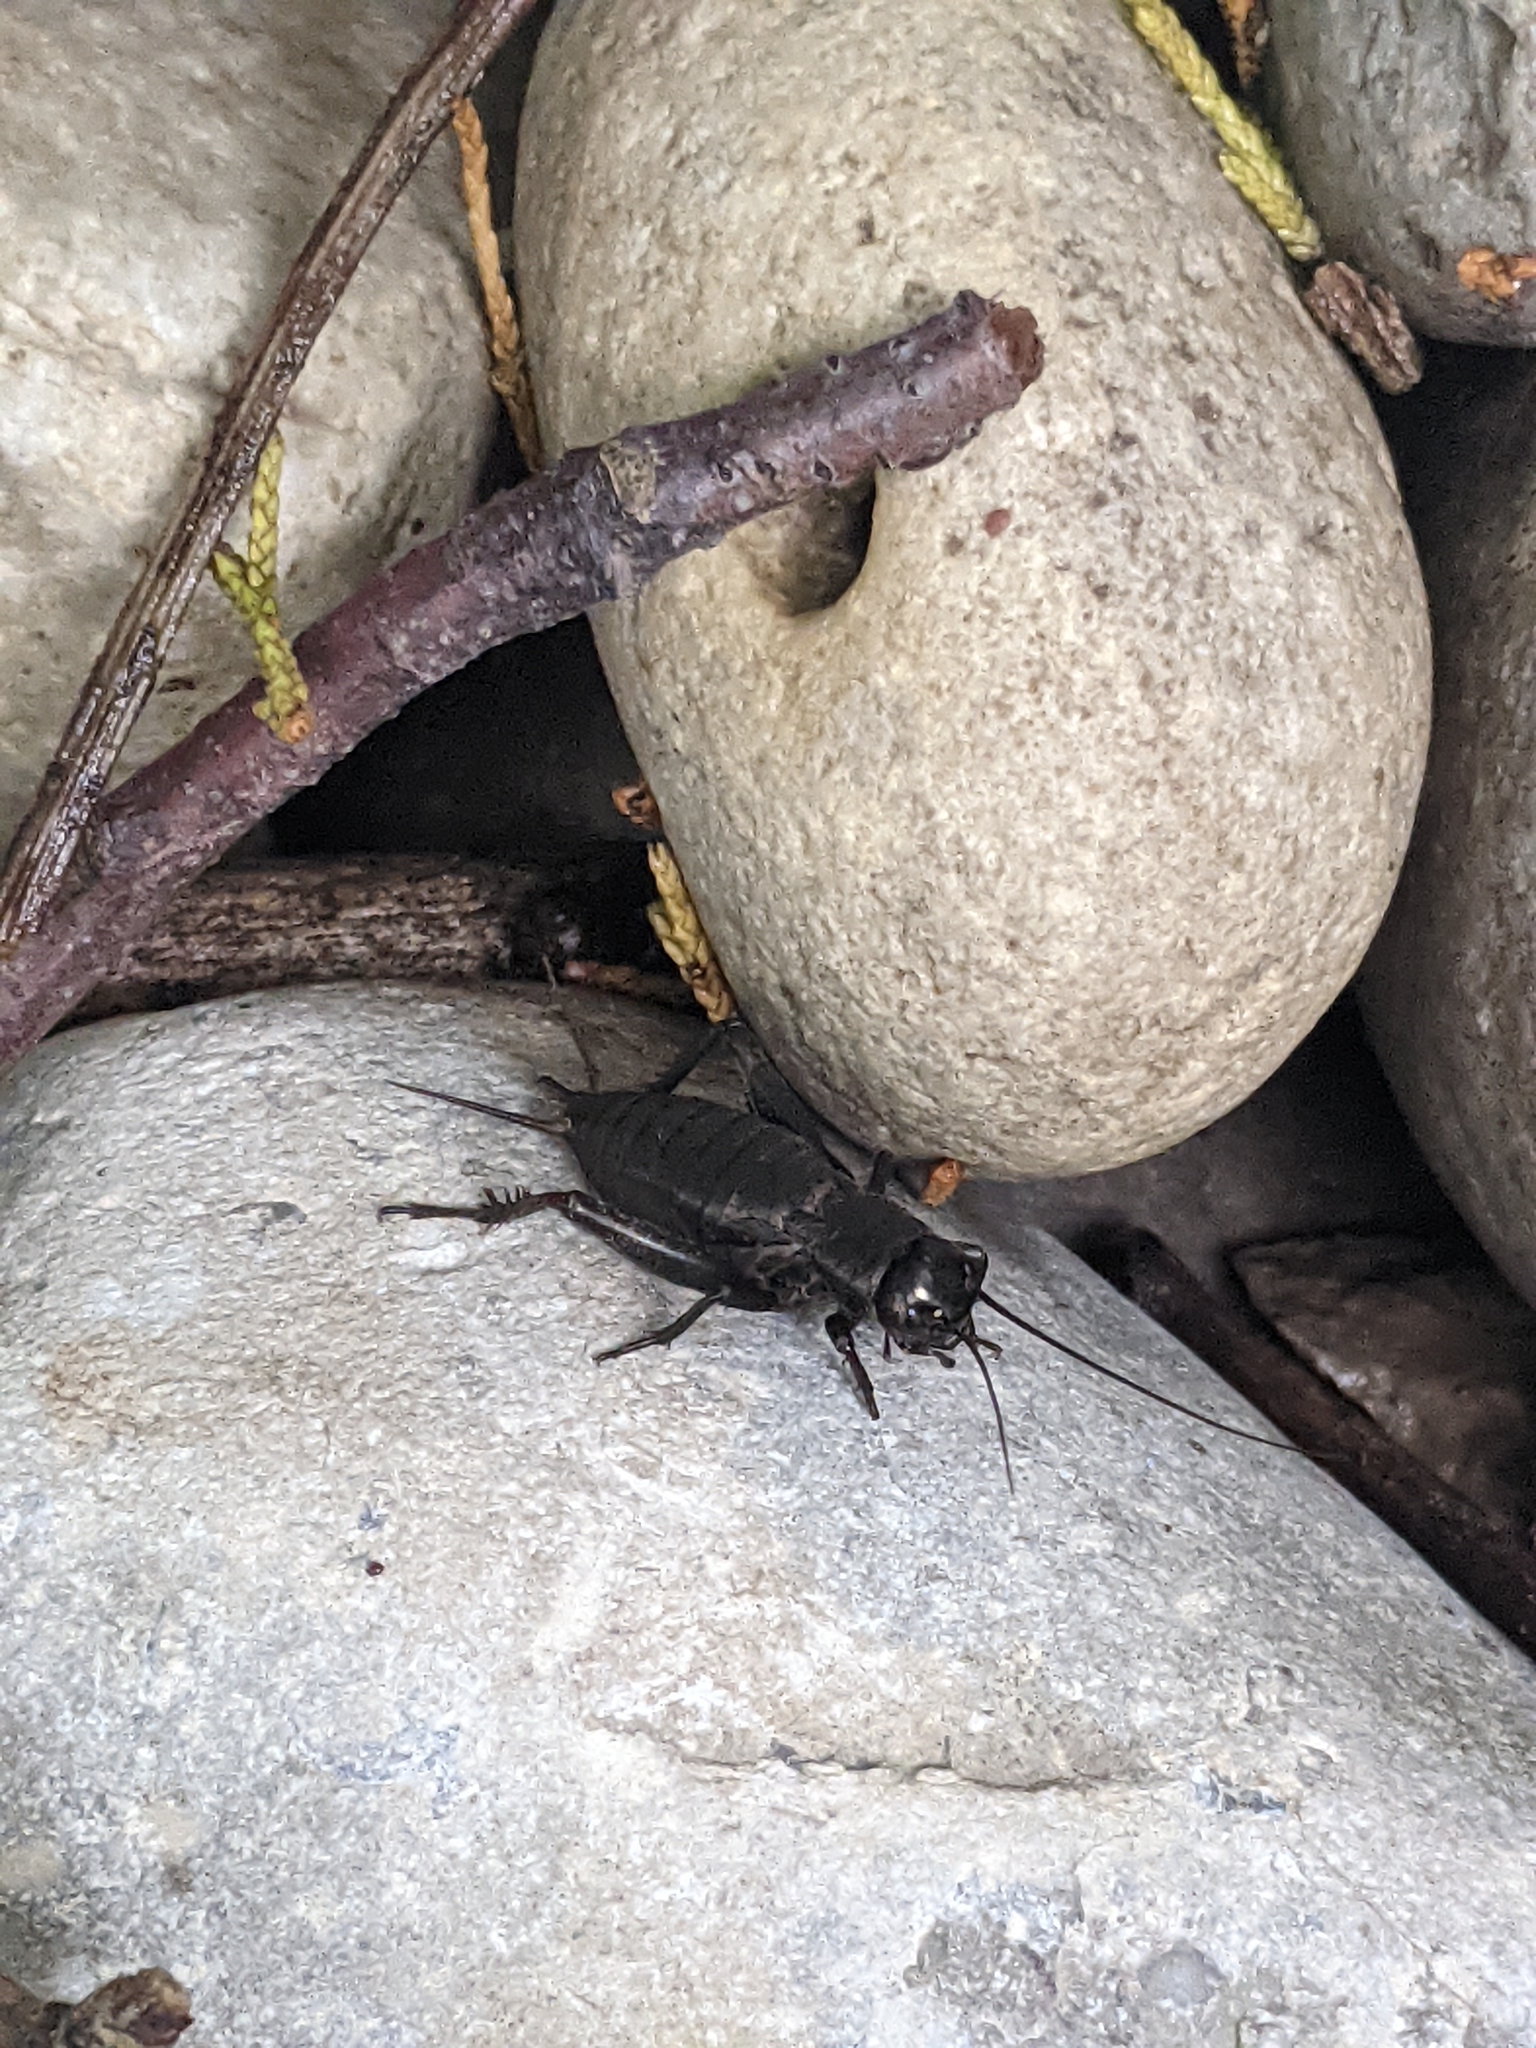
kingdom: Animalia
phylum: Arthropoda
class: Insecta
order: Orthoptera
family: Gryllidae
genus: Gryllus
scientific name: Gryllus pennsylvanicus
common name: Fall field cricket
